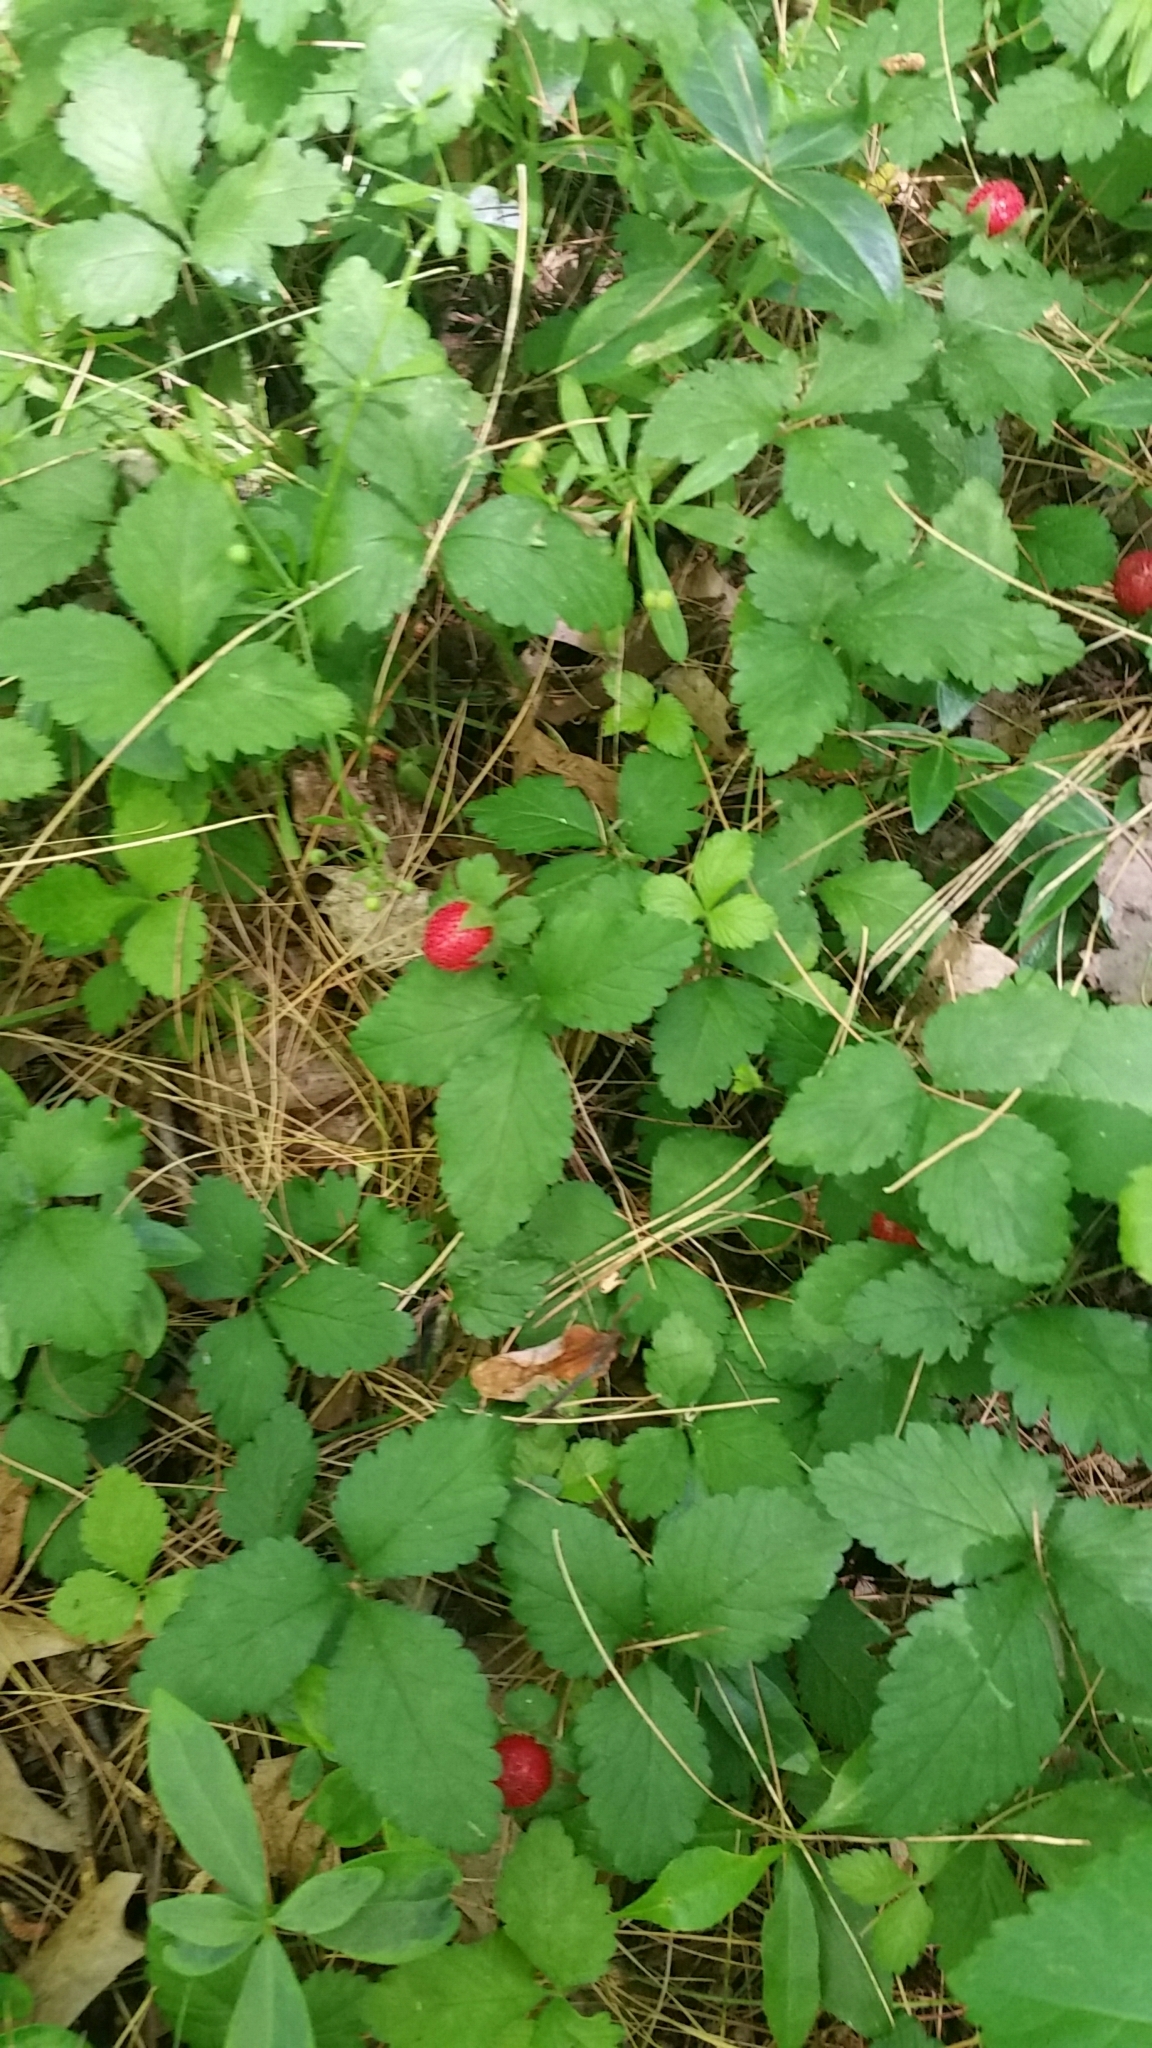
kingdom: Plantae
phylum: Tracheophyta
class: Magnoliopsida
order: Rosales
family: Rosaceae
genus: Potentilla
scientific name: Potentilla indica
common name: Yellow-flowered strawberry
